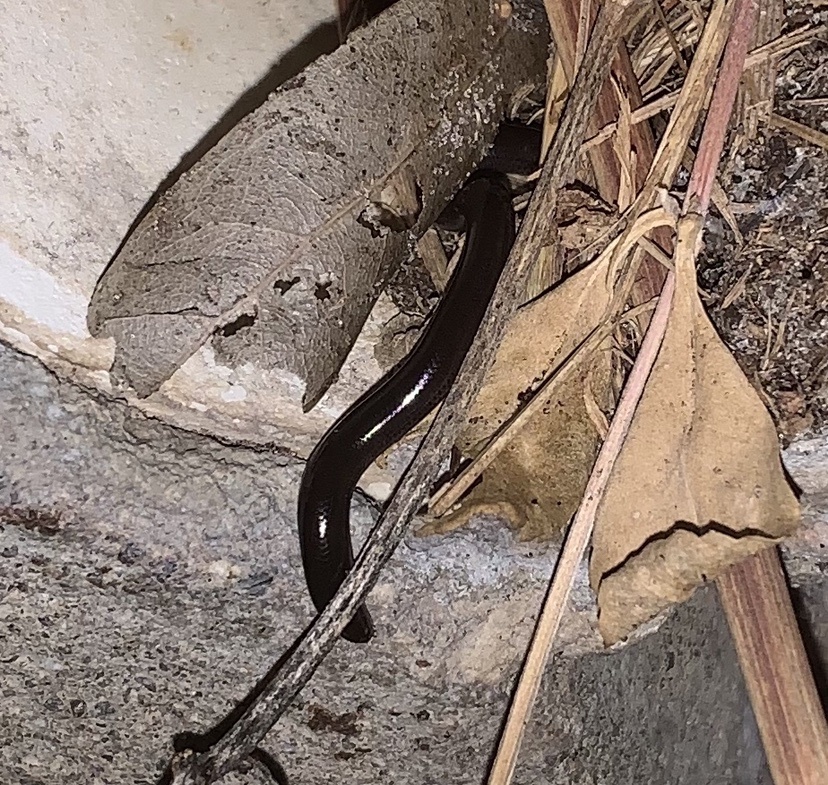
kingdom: Animalia
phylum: Chordata
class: Squamata
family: Typhlopidae
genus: Indotyphlops
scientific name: Indotyphlops braminus
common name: Brahminy blindsnake
